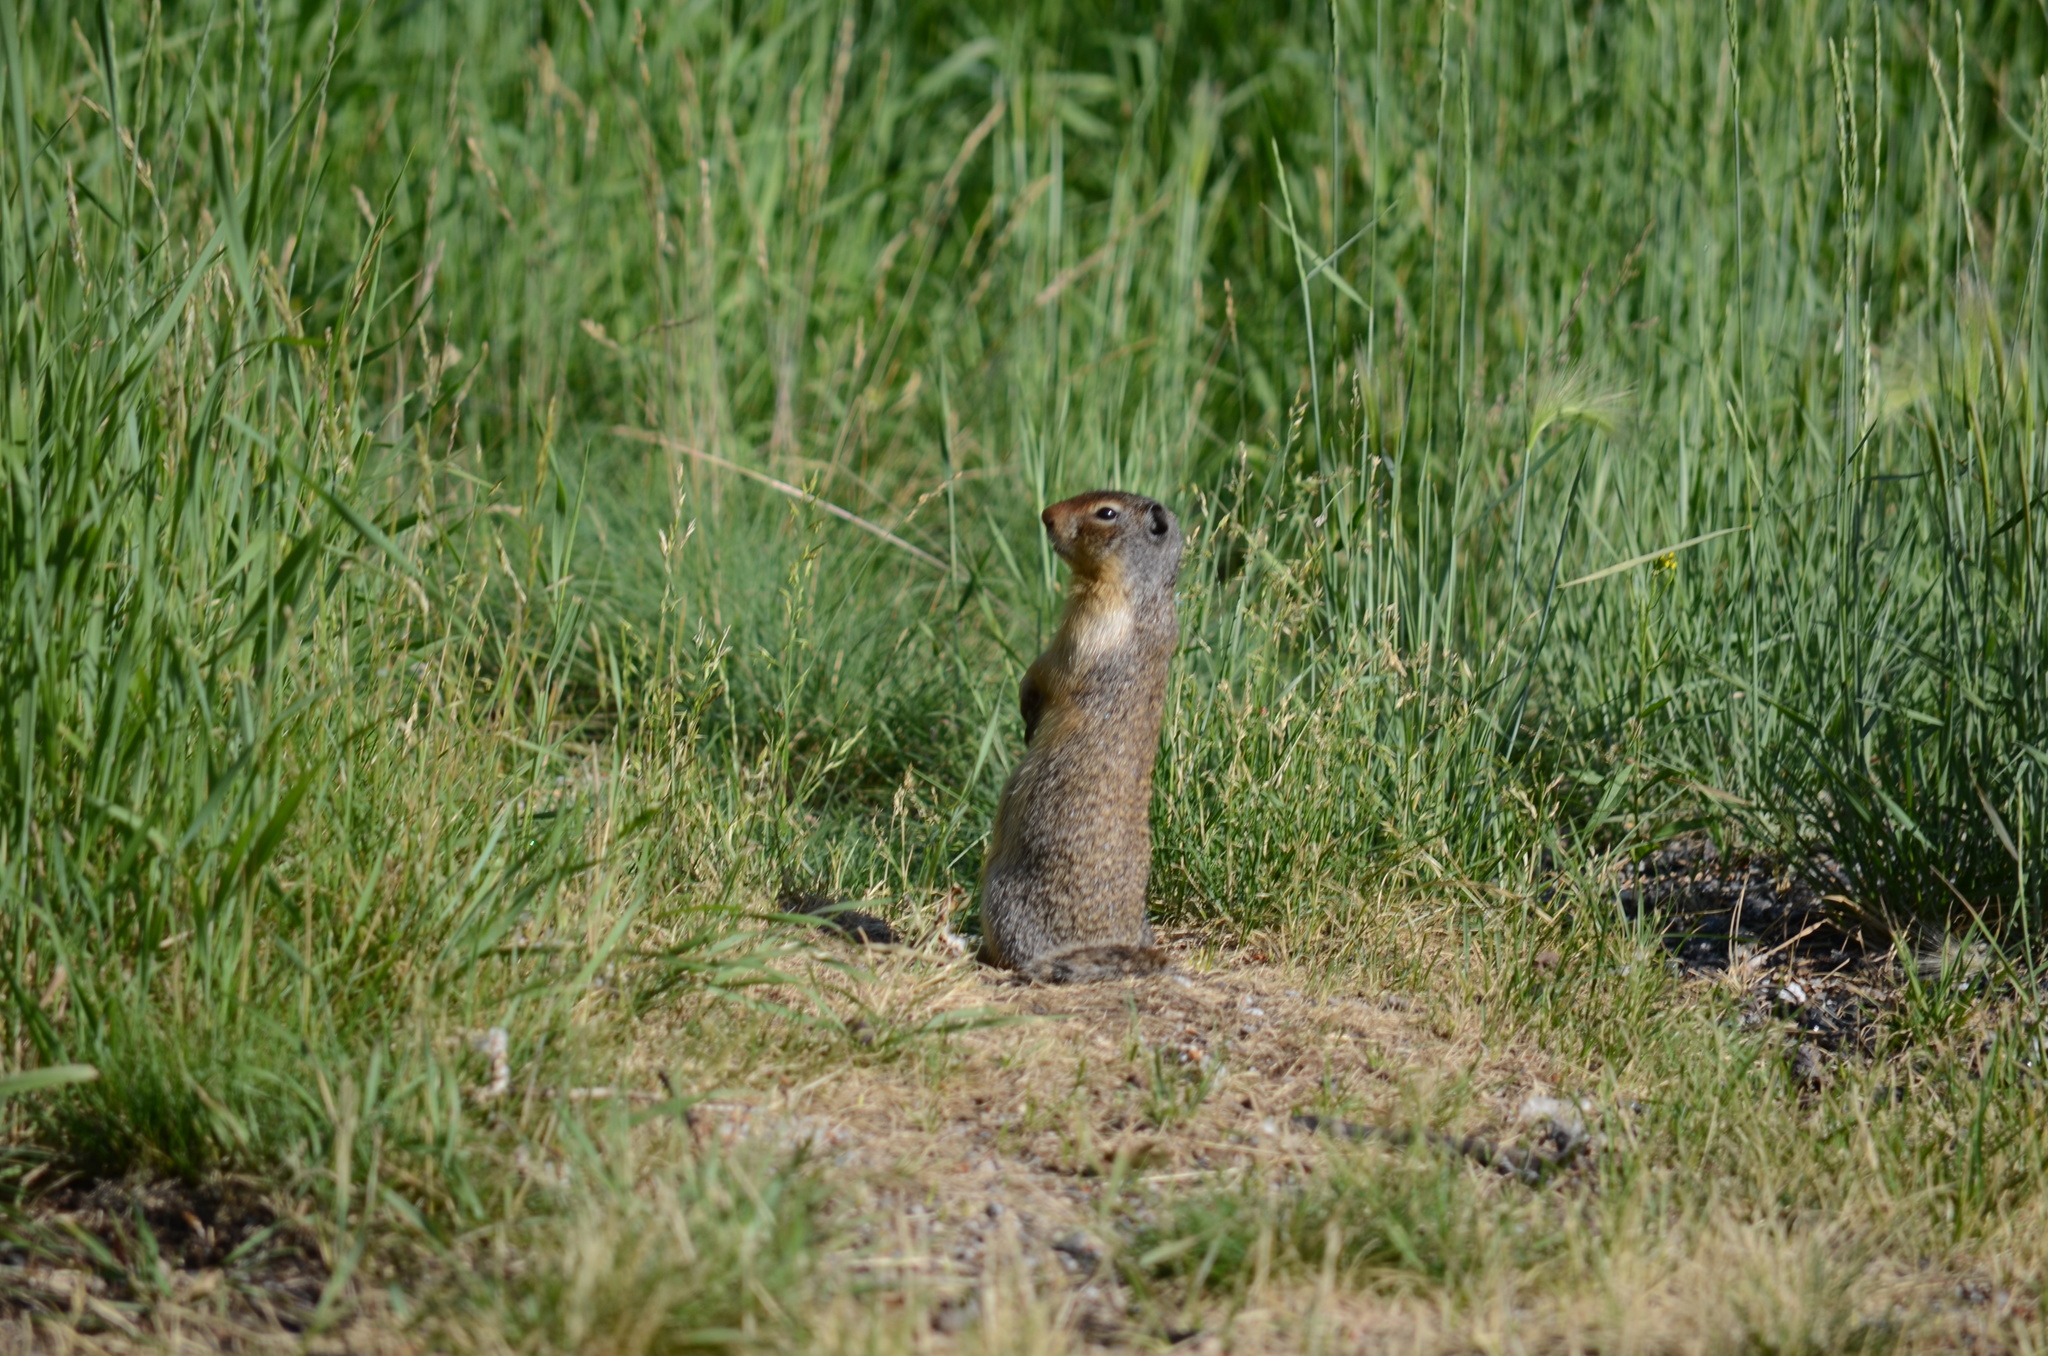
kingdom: Animalia
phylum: Chordata
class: Mammalia
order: Rodentia
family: Sciuridae
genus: Urocitellus
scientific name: Urocitellus columbianus
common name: Columbian ground squirrel
